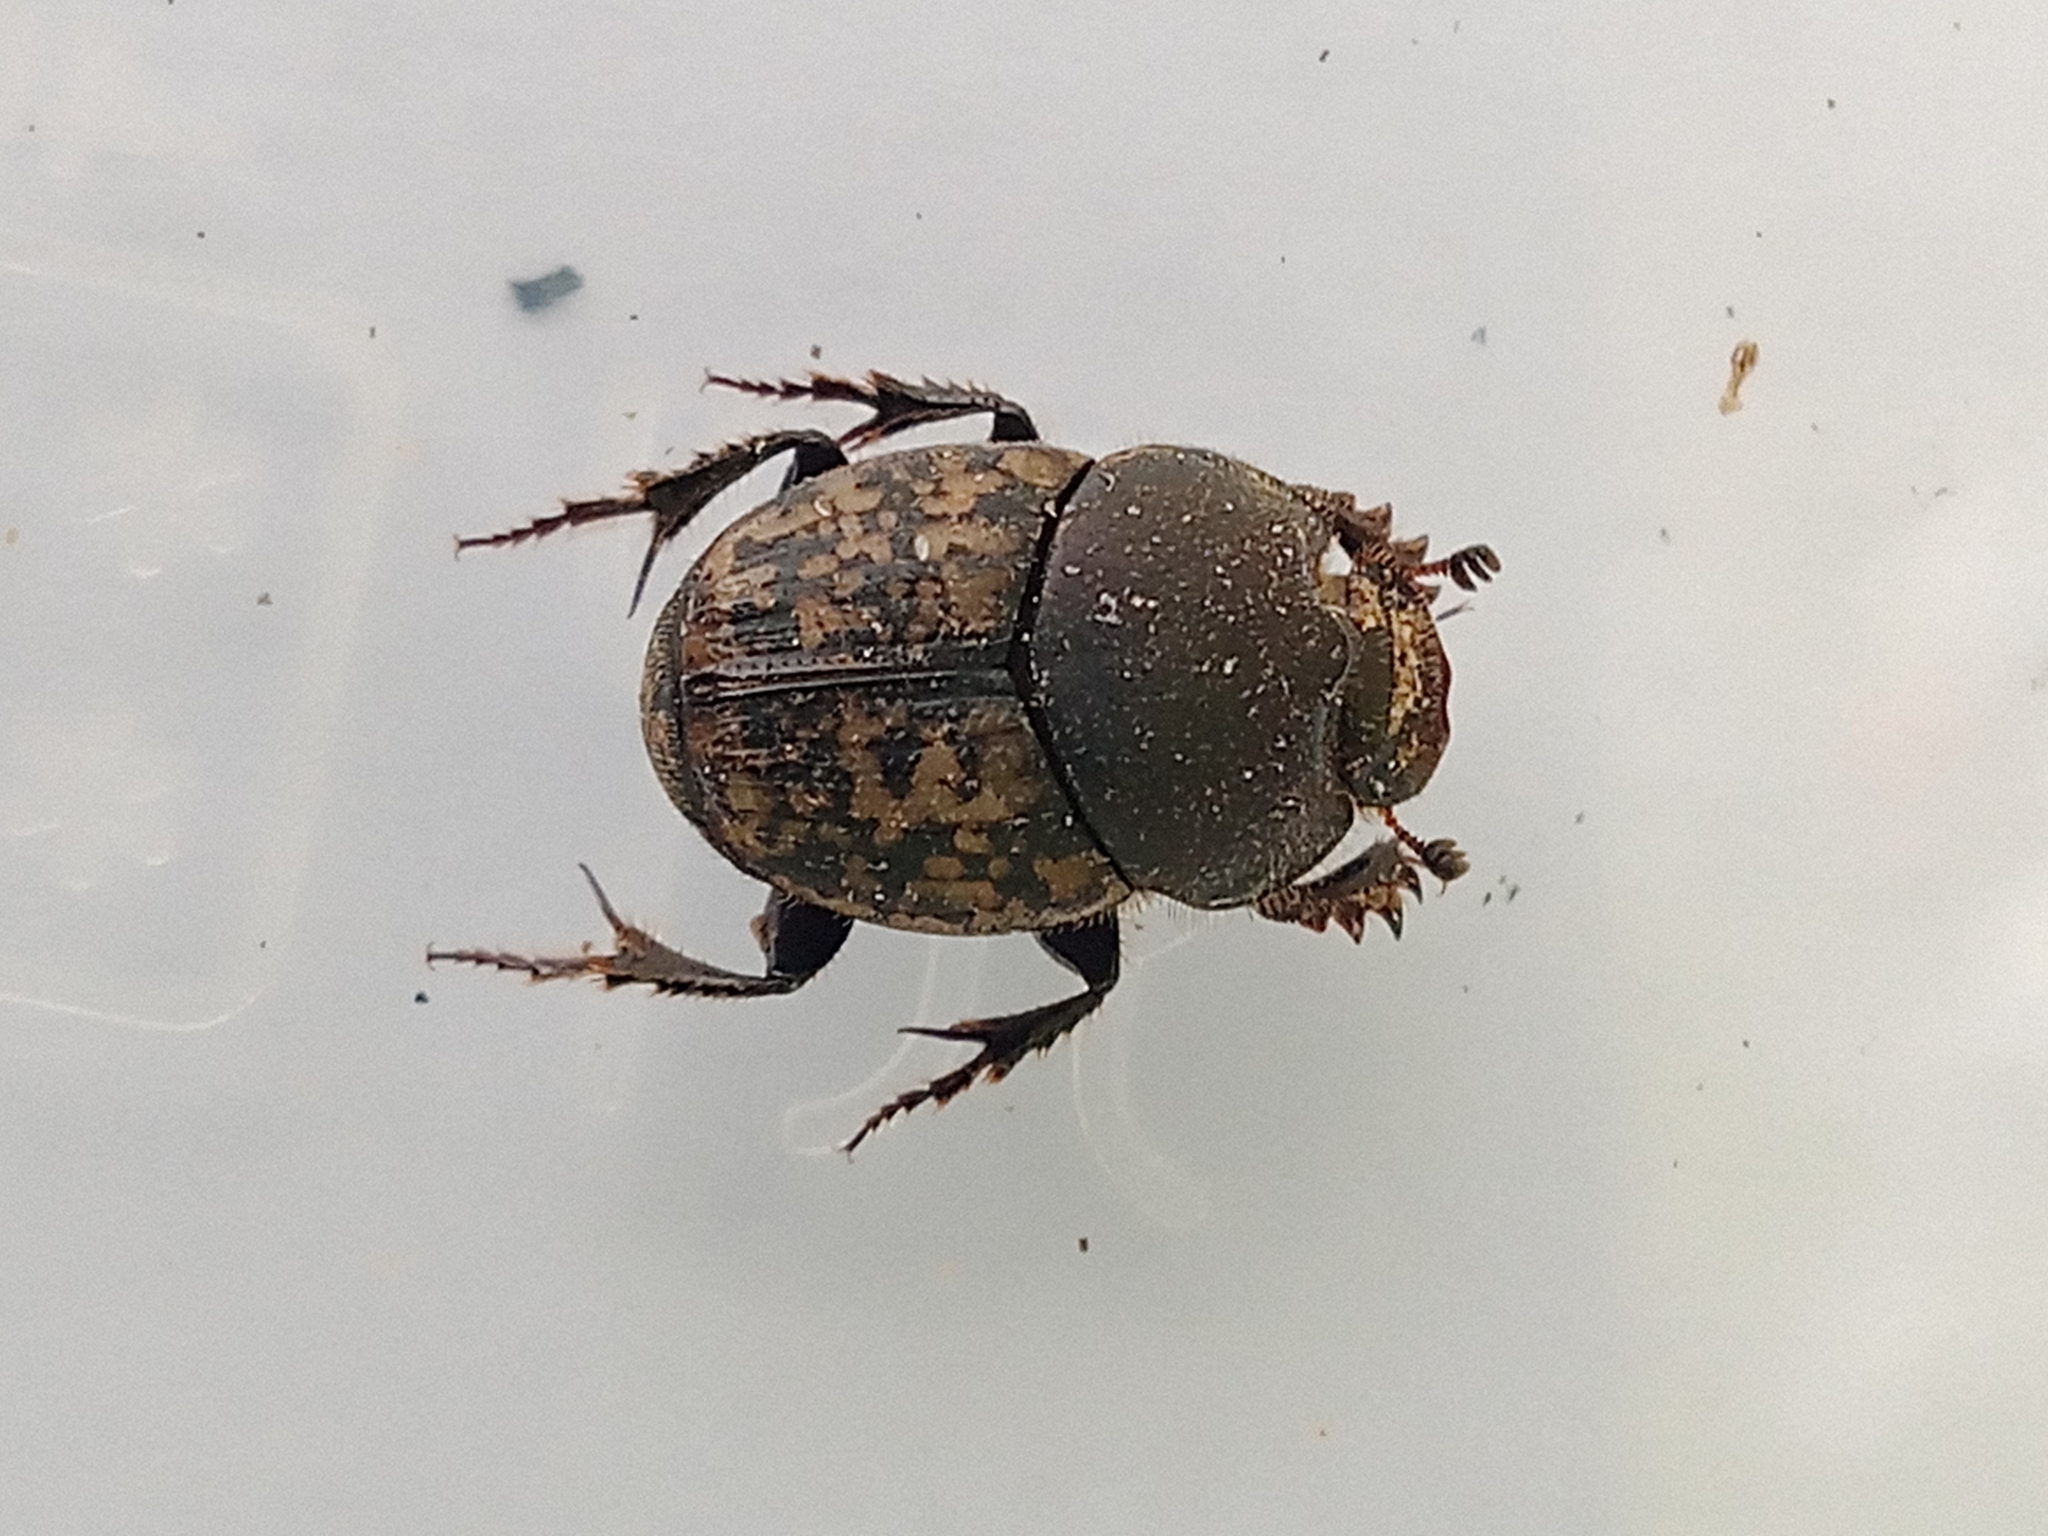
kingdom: Animalia
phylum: Arthropoda
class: Insecta
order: Coleoptera
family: Scarabaeidae
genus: Onthophagus
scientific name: Onthophagus nuchicornis
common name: Mottled dung beetle
